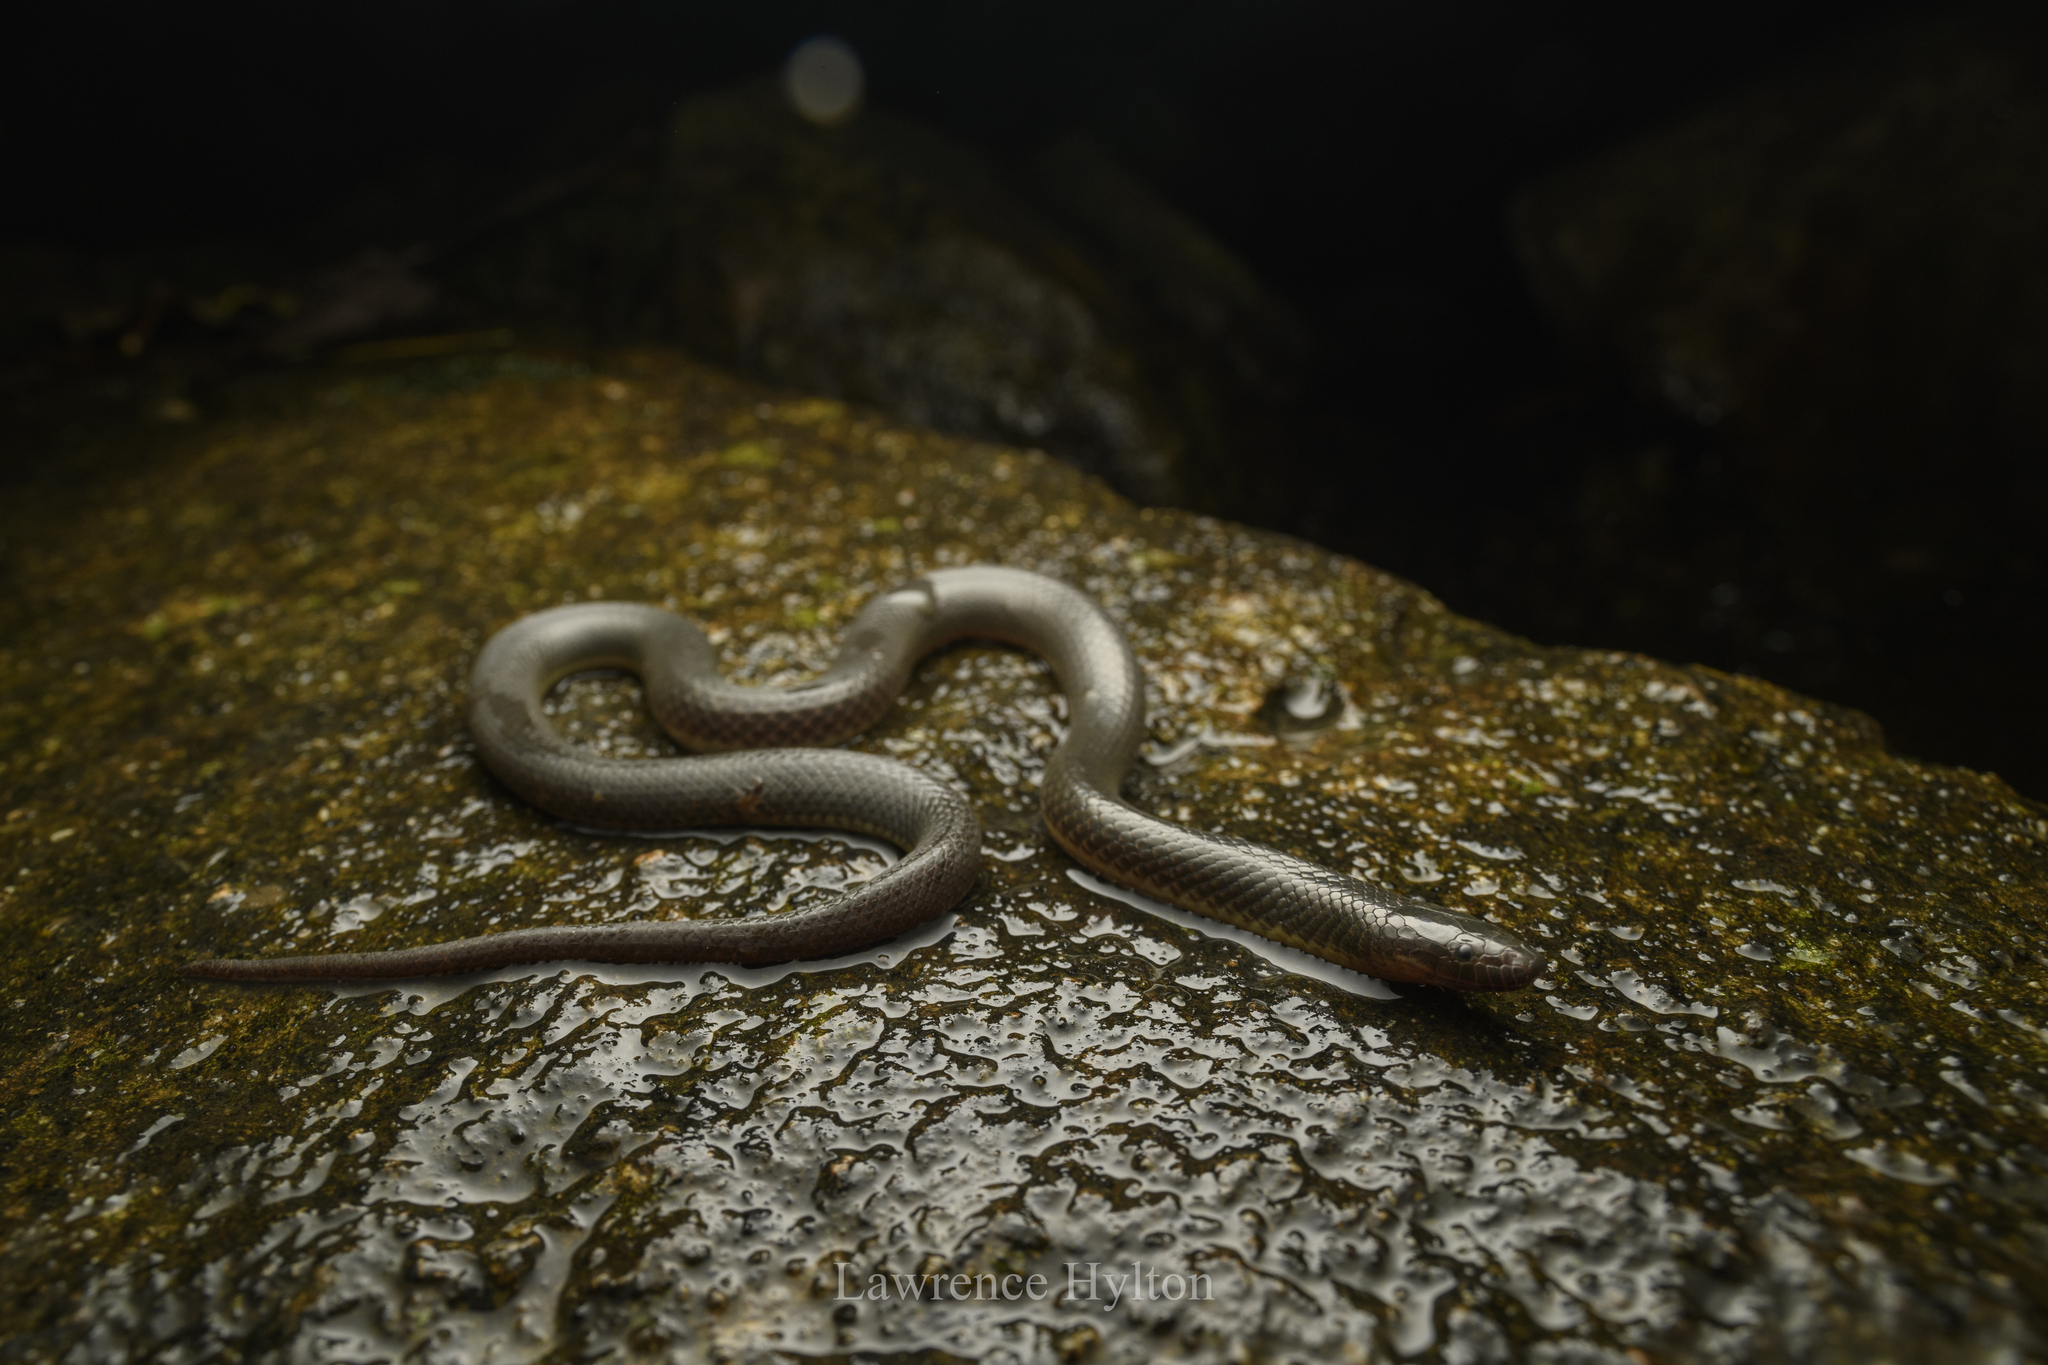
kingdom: Animalia
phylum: Chordata
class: Squamata
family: Colubridae
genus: Opisthotropis
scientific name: Opisthotropis andersonii
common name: Anderson's mountain keelback
